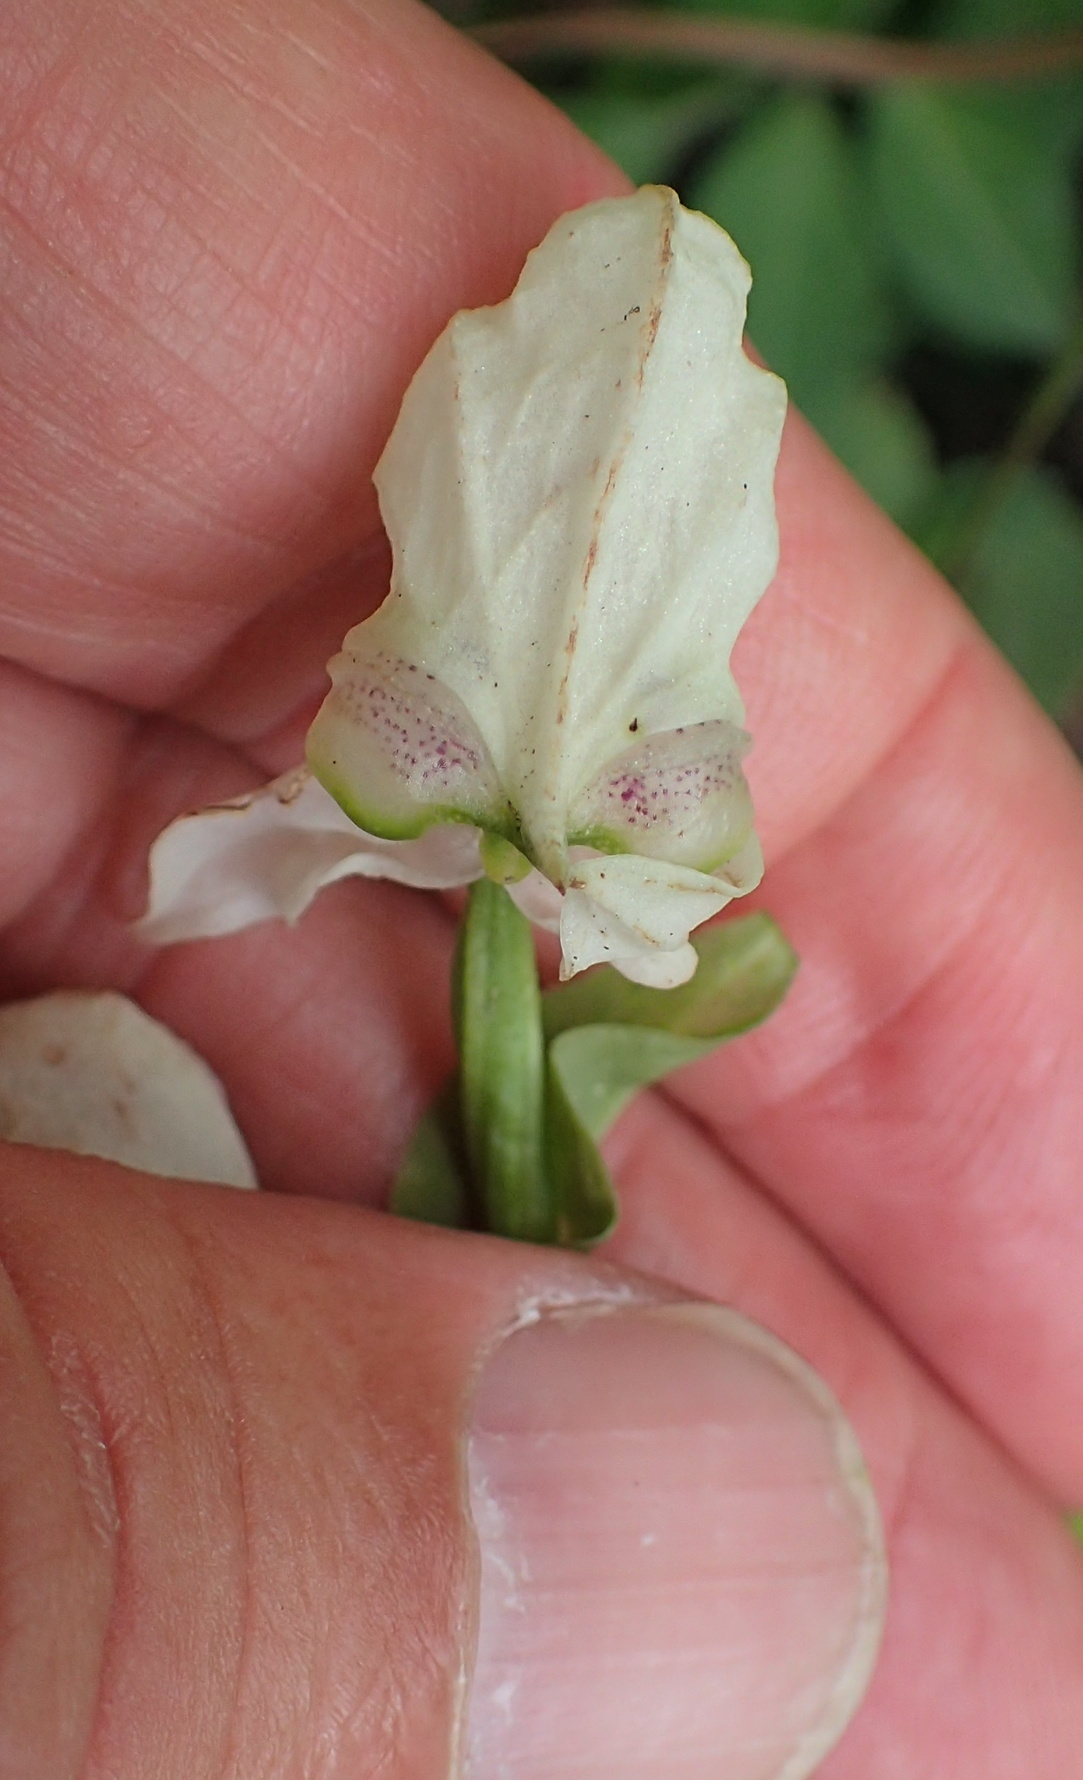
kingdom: Plantae
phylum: Tracheophyta
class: Liliopsida
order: Asparagales
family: Orchidaceae
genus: Disperis
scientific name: Disperis fanniniae
